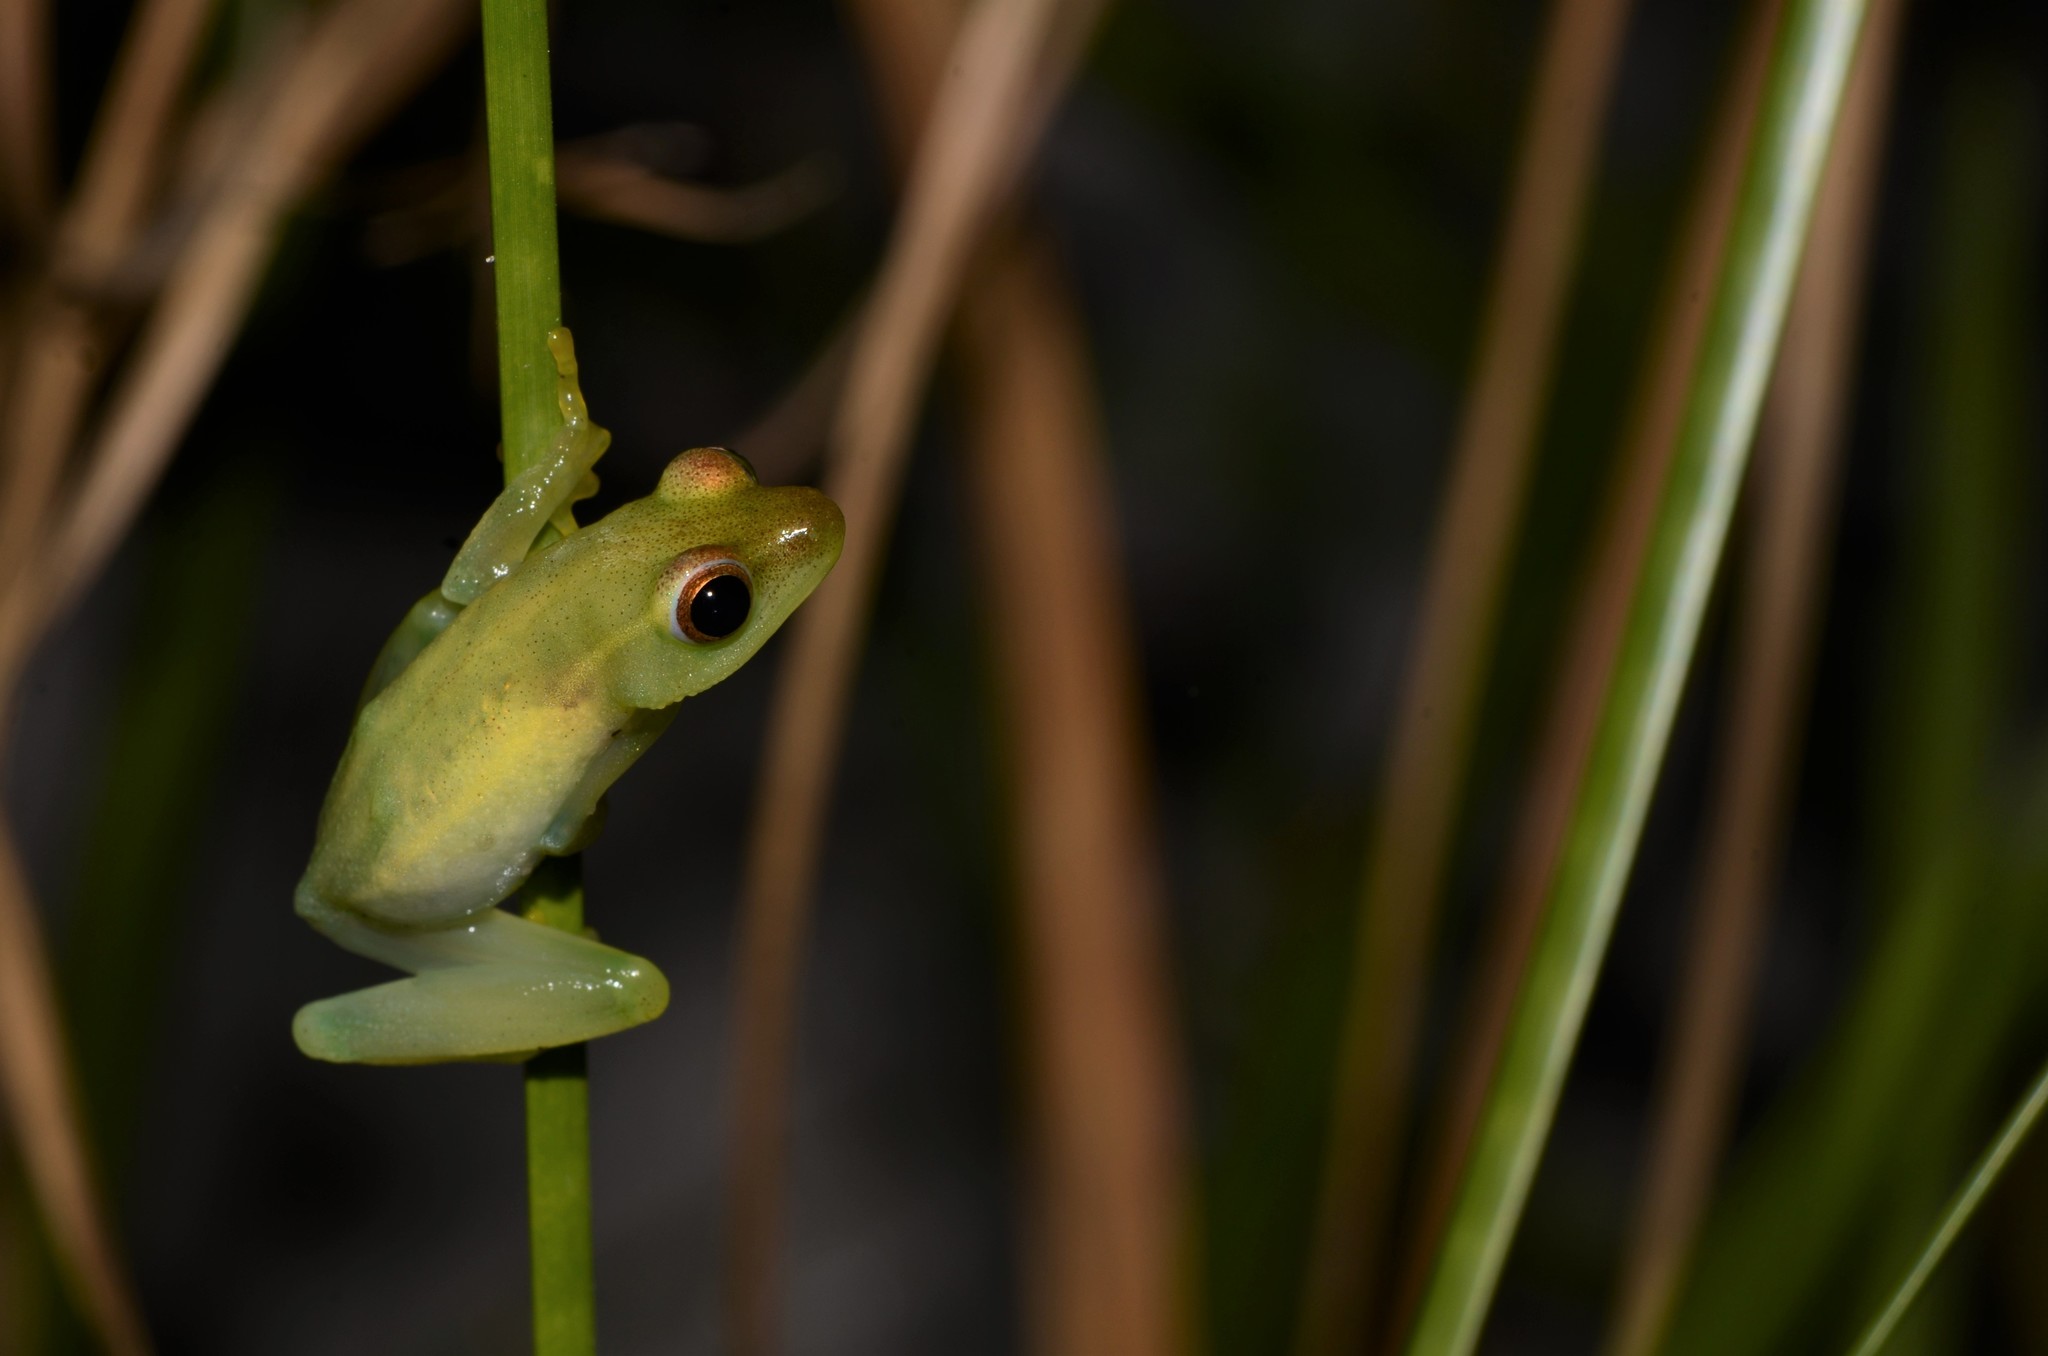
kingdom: Animalia
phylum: Chordata
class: Amphibia
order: Anura
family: Hyperoliidae
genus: Hyperolius
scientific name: Hyperolius microps
